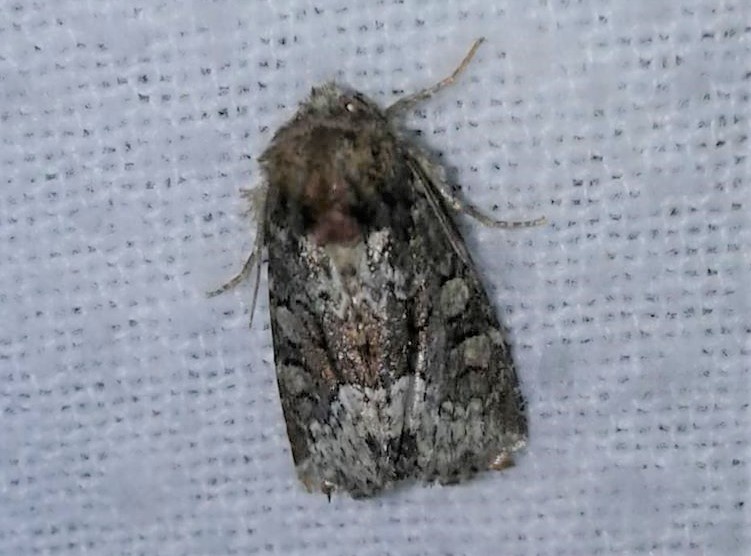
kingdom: Animalia
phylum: Arthropoda
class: Insecta
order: Lepidoptera
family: Noctuidae
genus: Oligia
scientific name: Oligia strigilis
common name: Marbled minor
